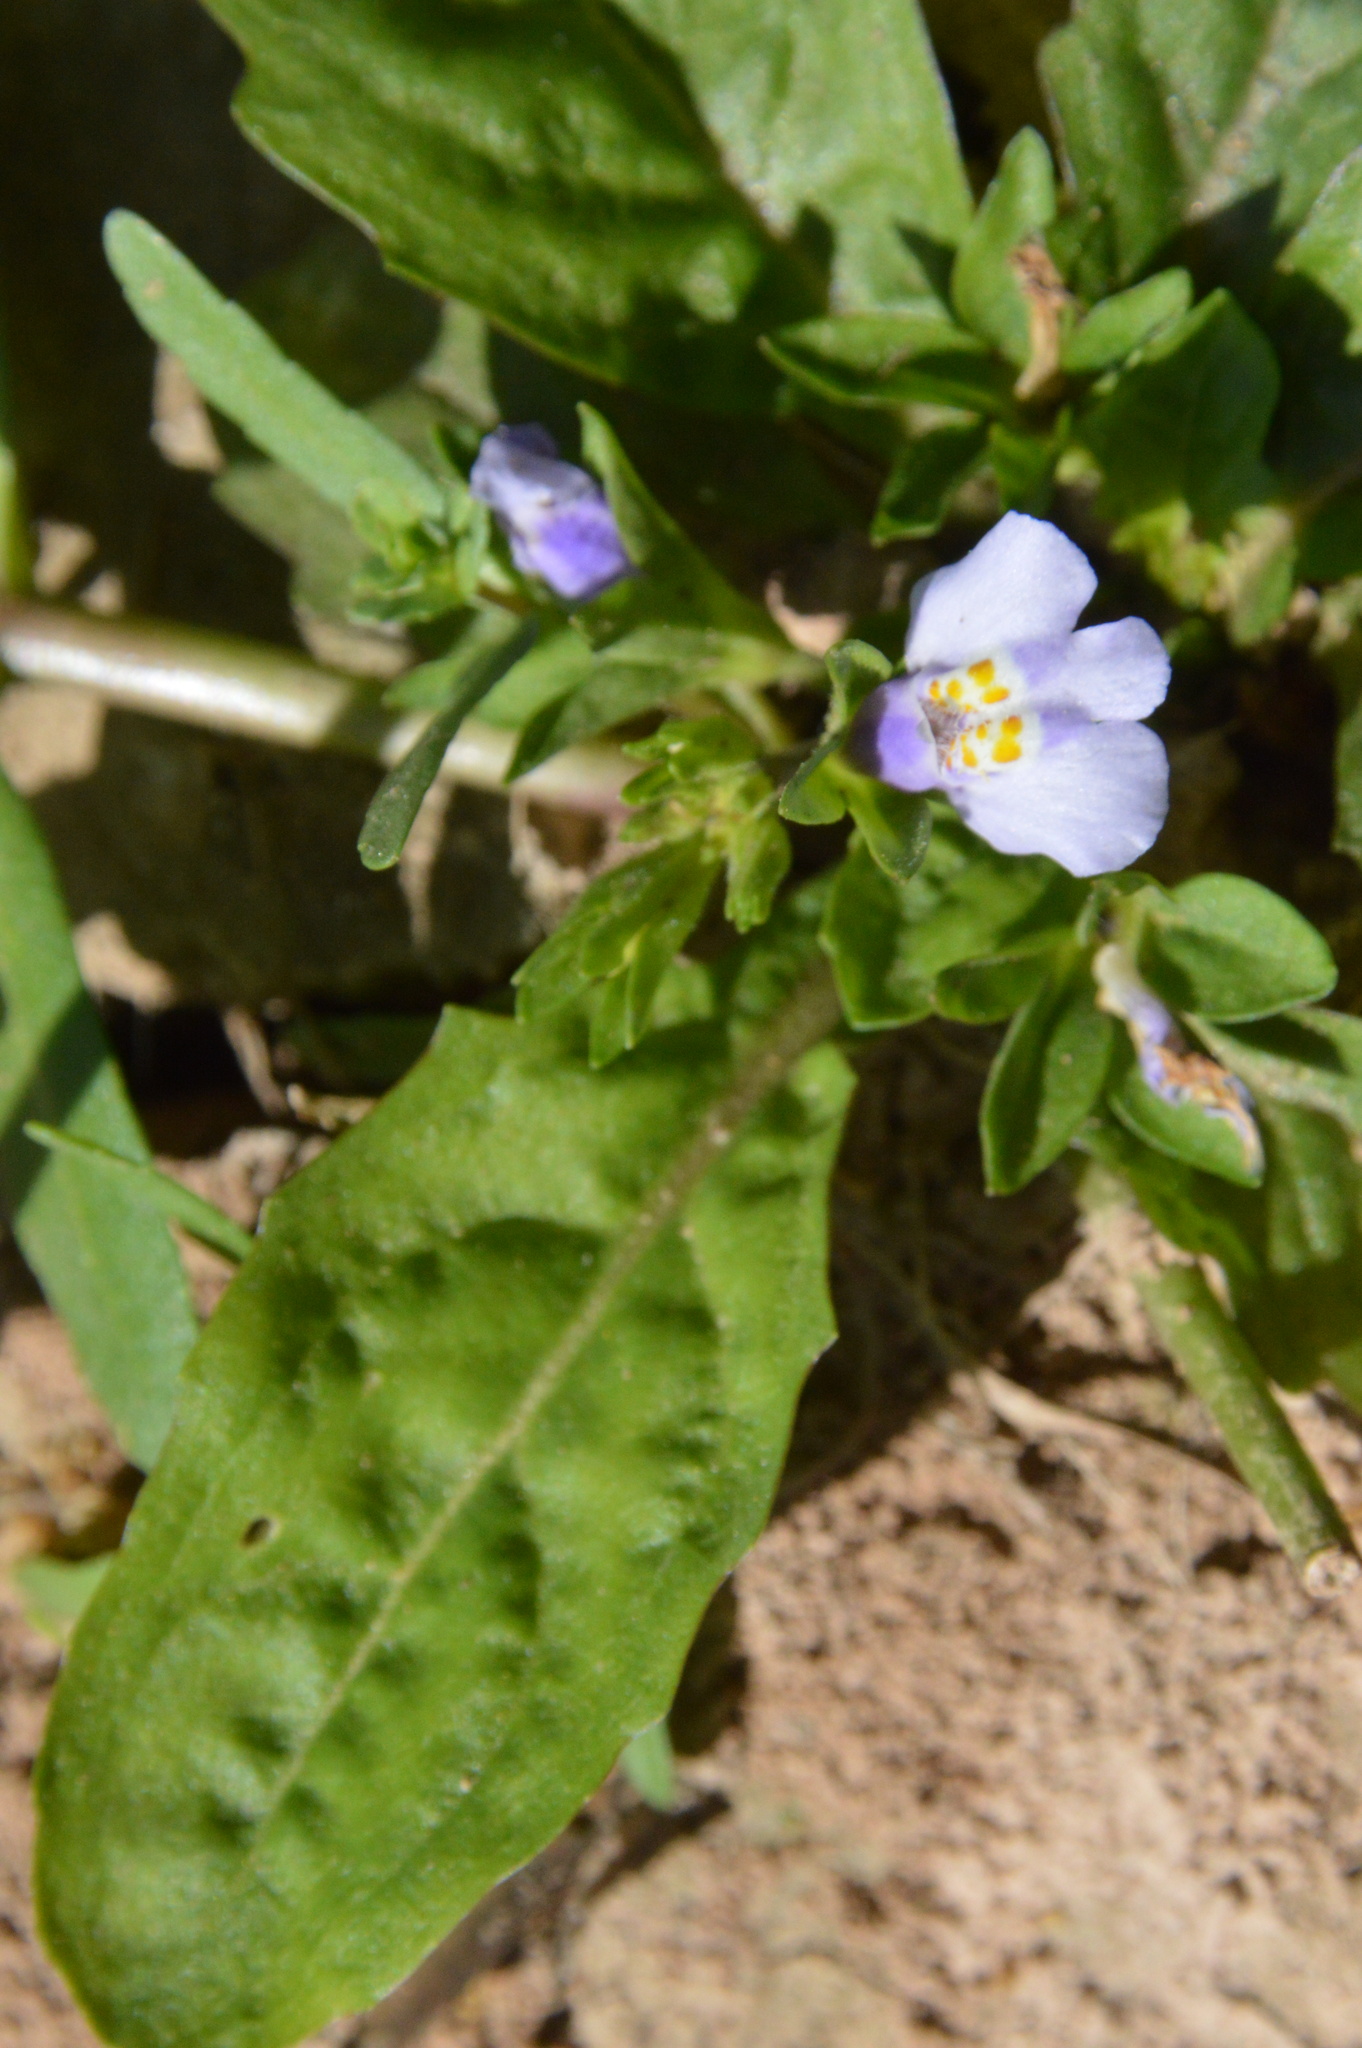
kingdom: Plantae
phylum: Tracheophyta
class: Magnoliopsida
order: Lamiales
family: Mazaceae
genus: Mazus
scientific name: Mazus pumilus
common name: Japanese mazus
